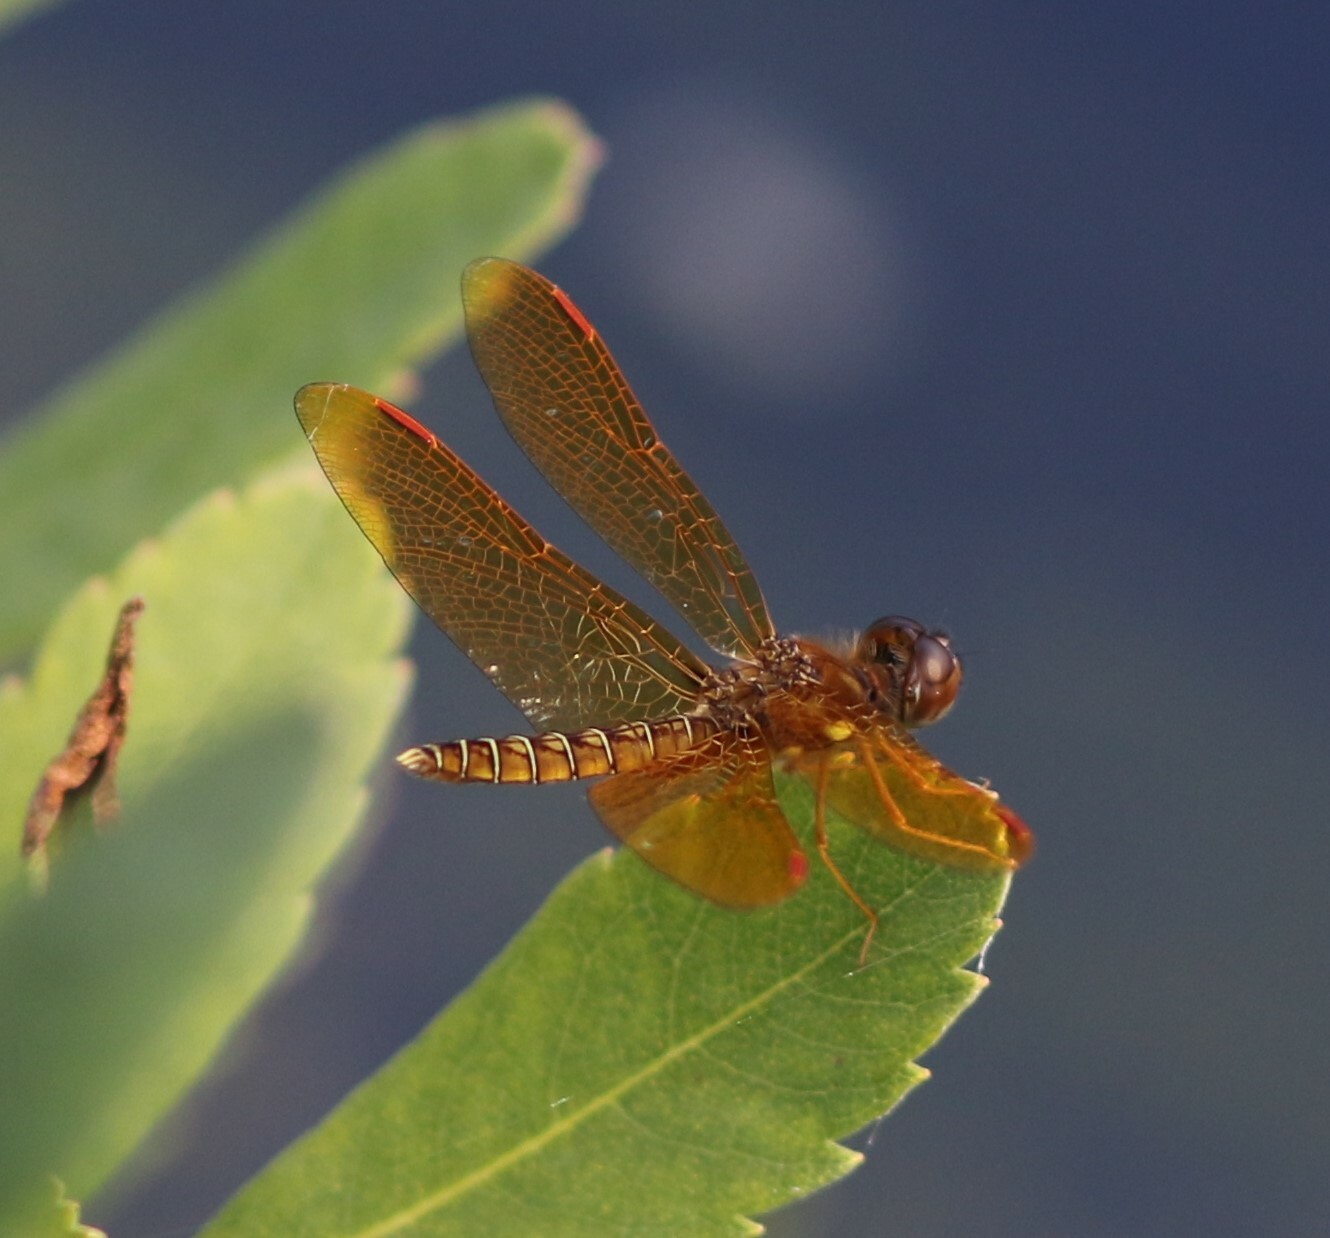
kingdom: Animalia
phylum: Arthropoda
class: Insecta
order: Odonata
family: Libellulidae
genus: Perithemis
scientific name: Perithemis tenera
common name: Eastern amberwing
